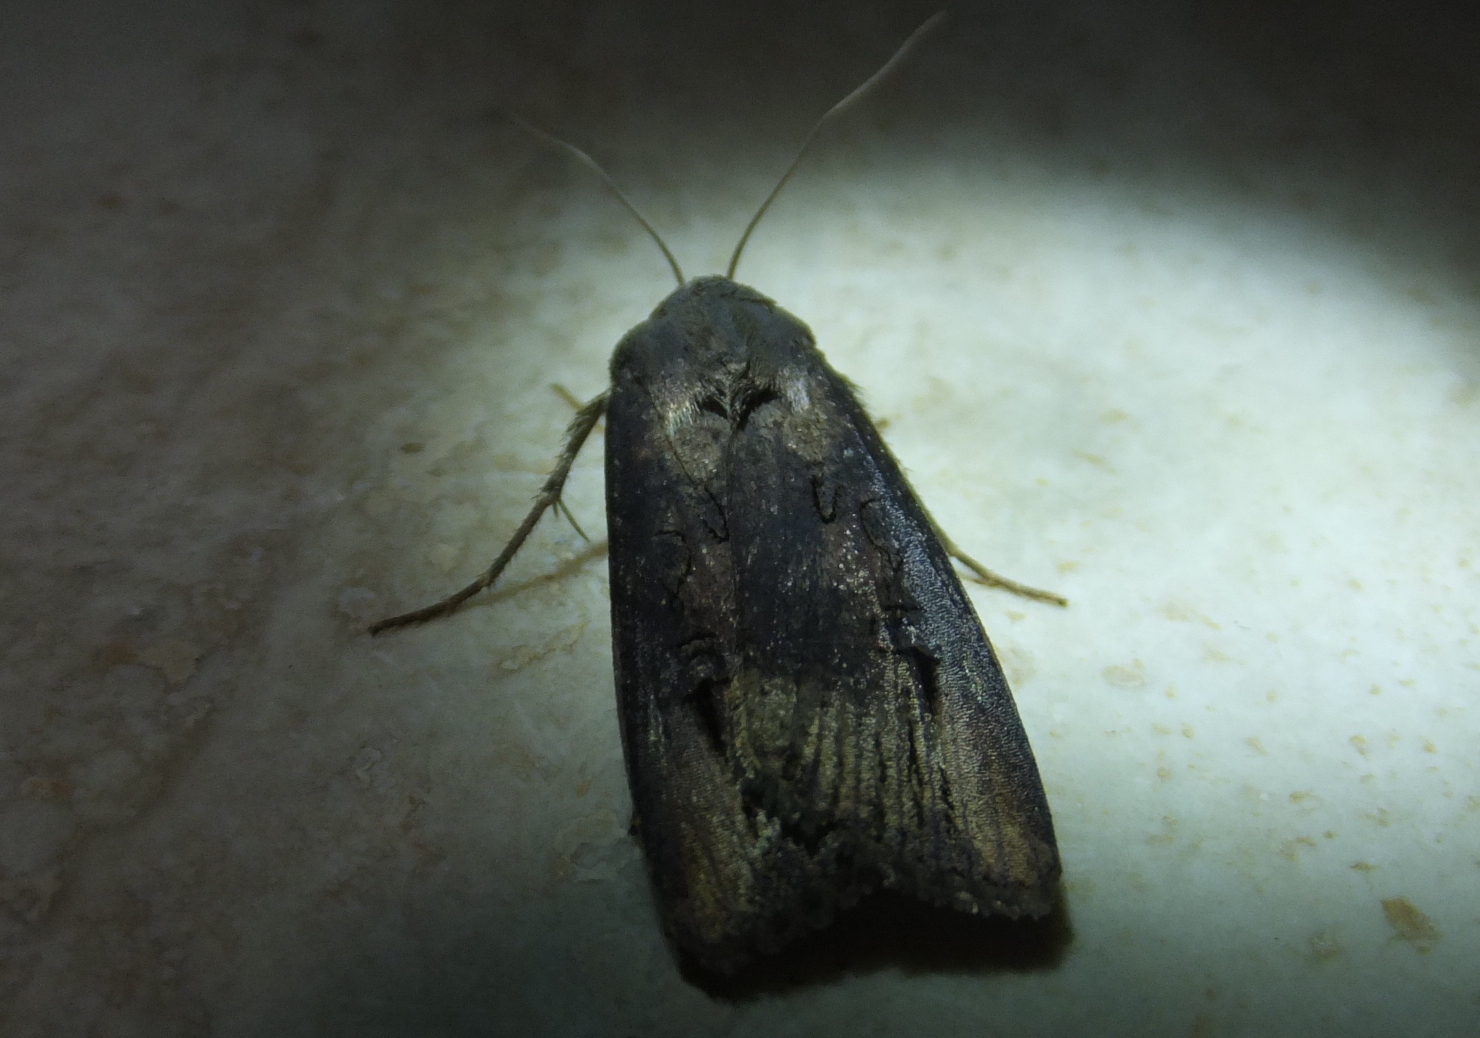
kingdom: Animalia
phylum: Arthropoda
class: Insecta
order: Lepidoptera
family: Noctuidae
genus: Agrotis
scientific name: Agrotis ipsilon
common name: Dark sword-grass
